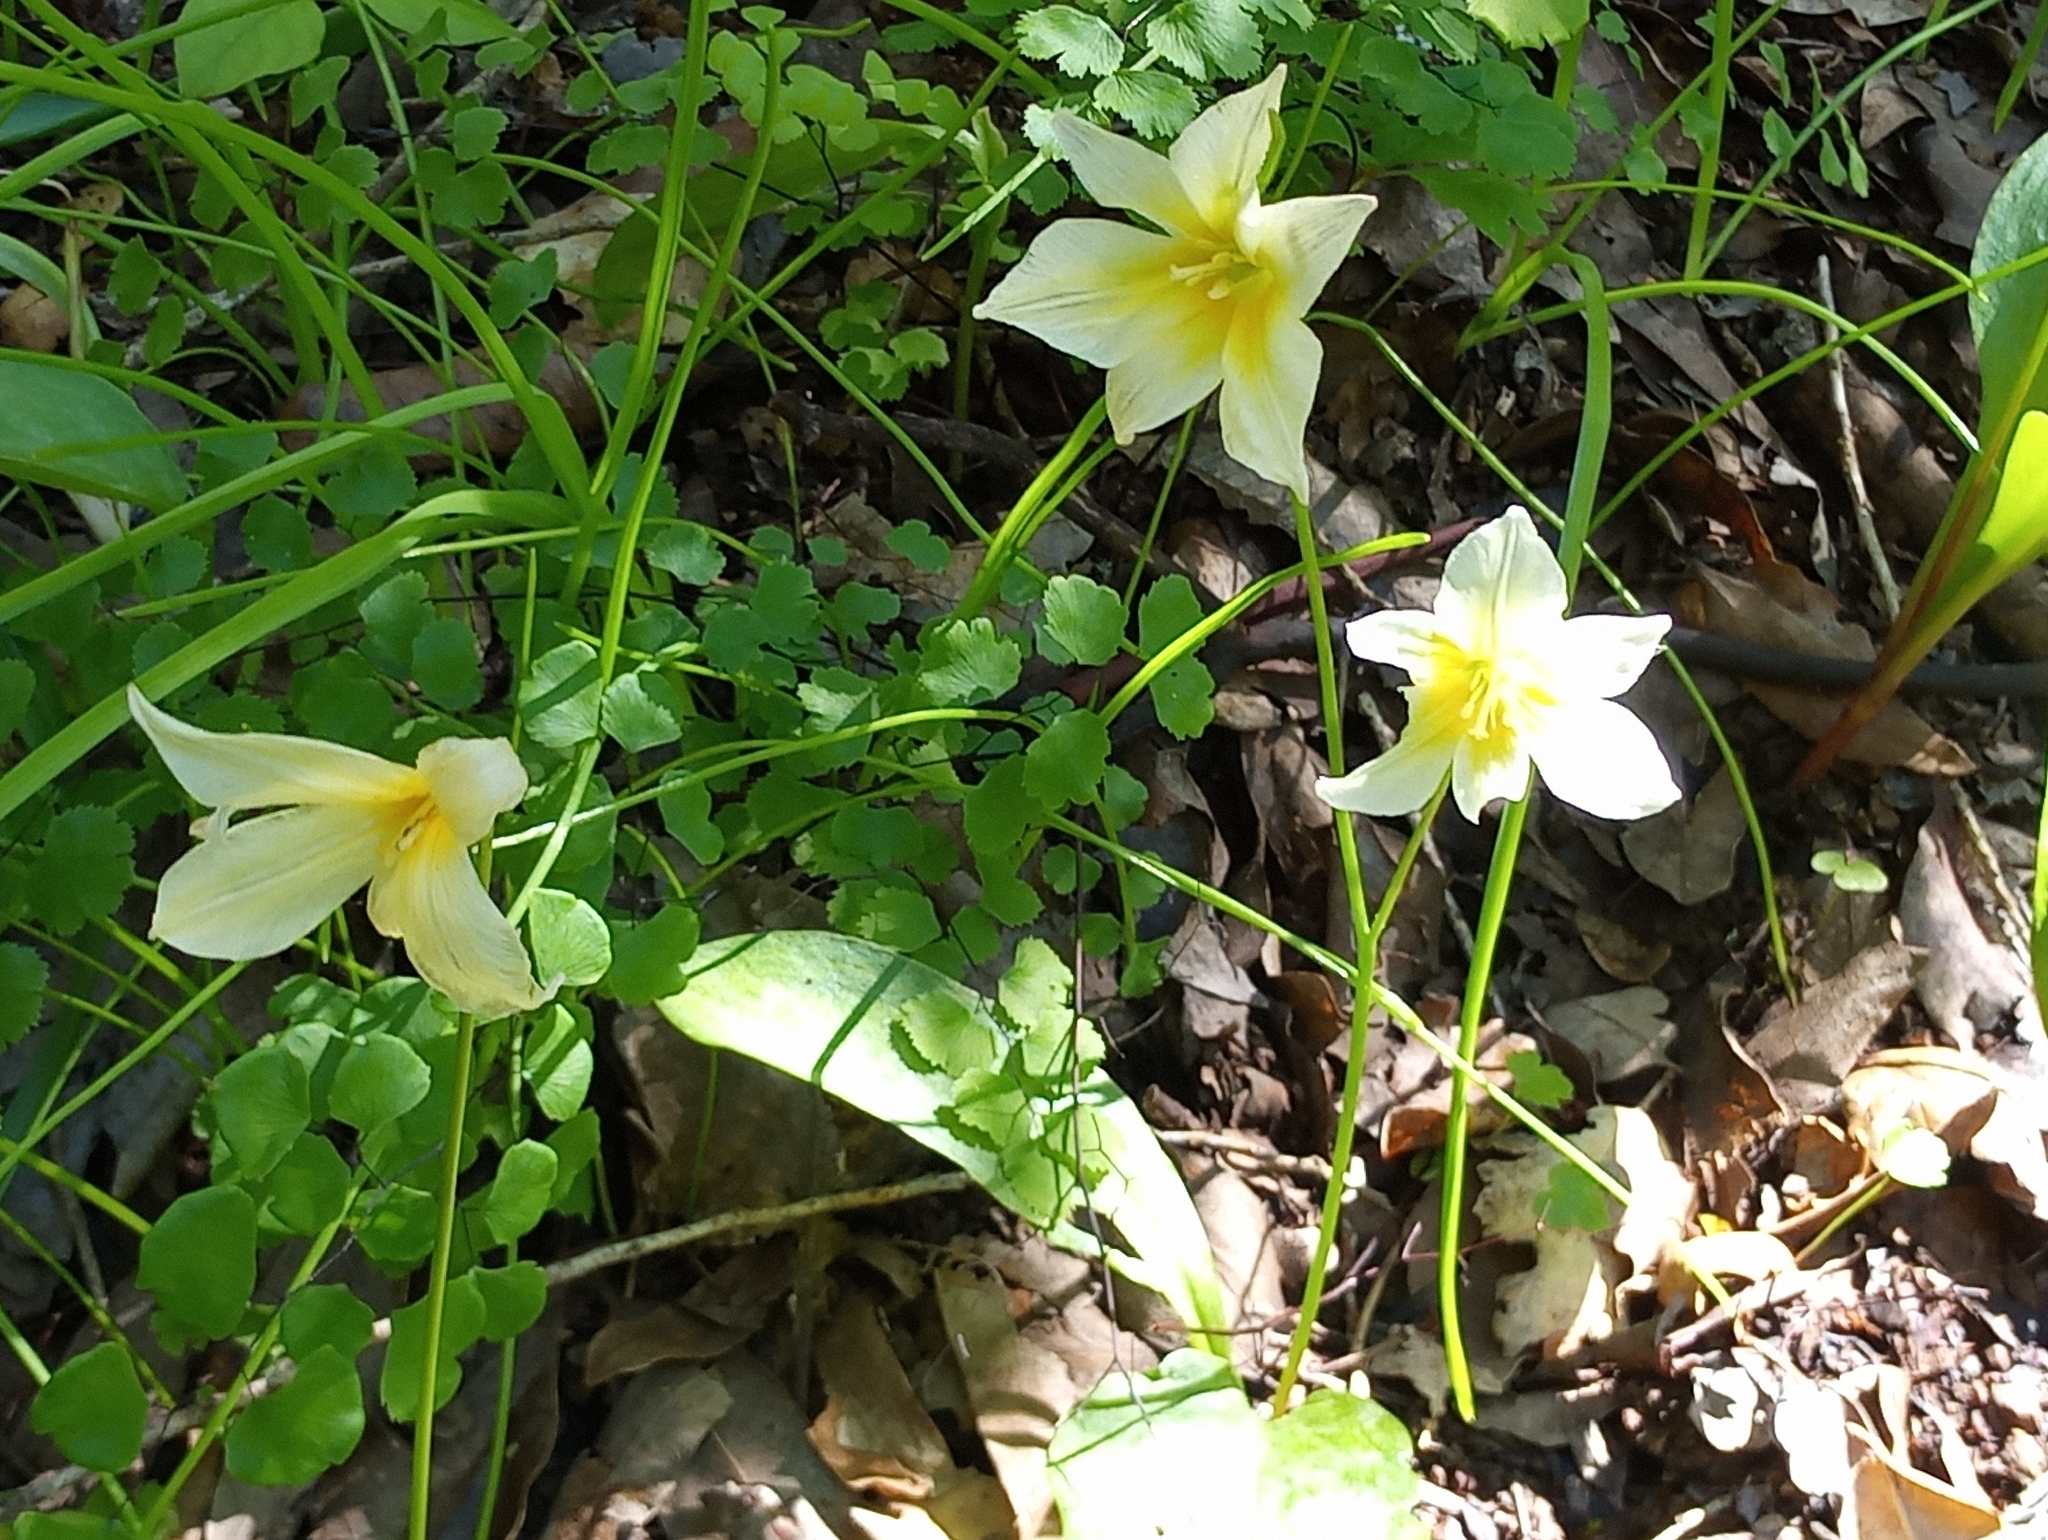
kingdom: Plantae
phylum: Tracheophyta
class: Liliopsida
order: Liliales
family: Liliaceae
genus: Erythronium
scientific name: Erythronium californicum
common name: Fawn-lily
